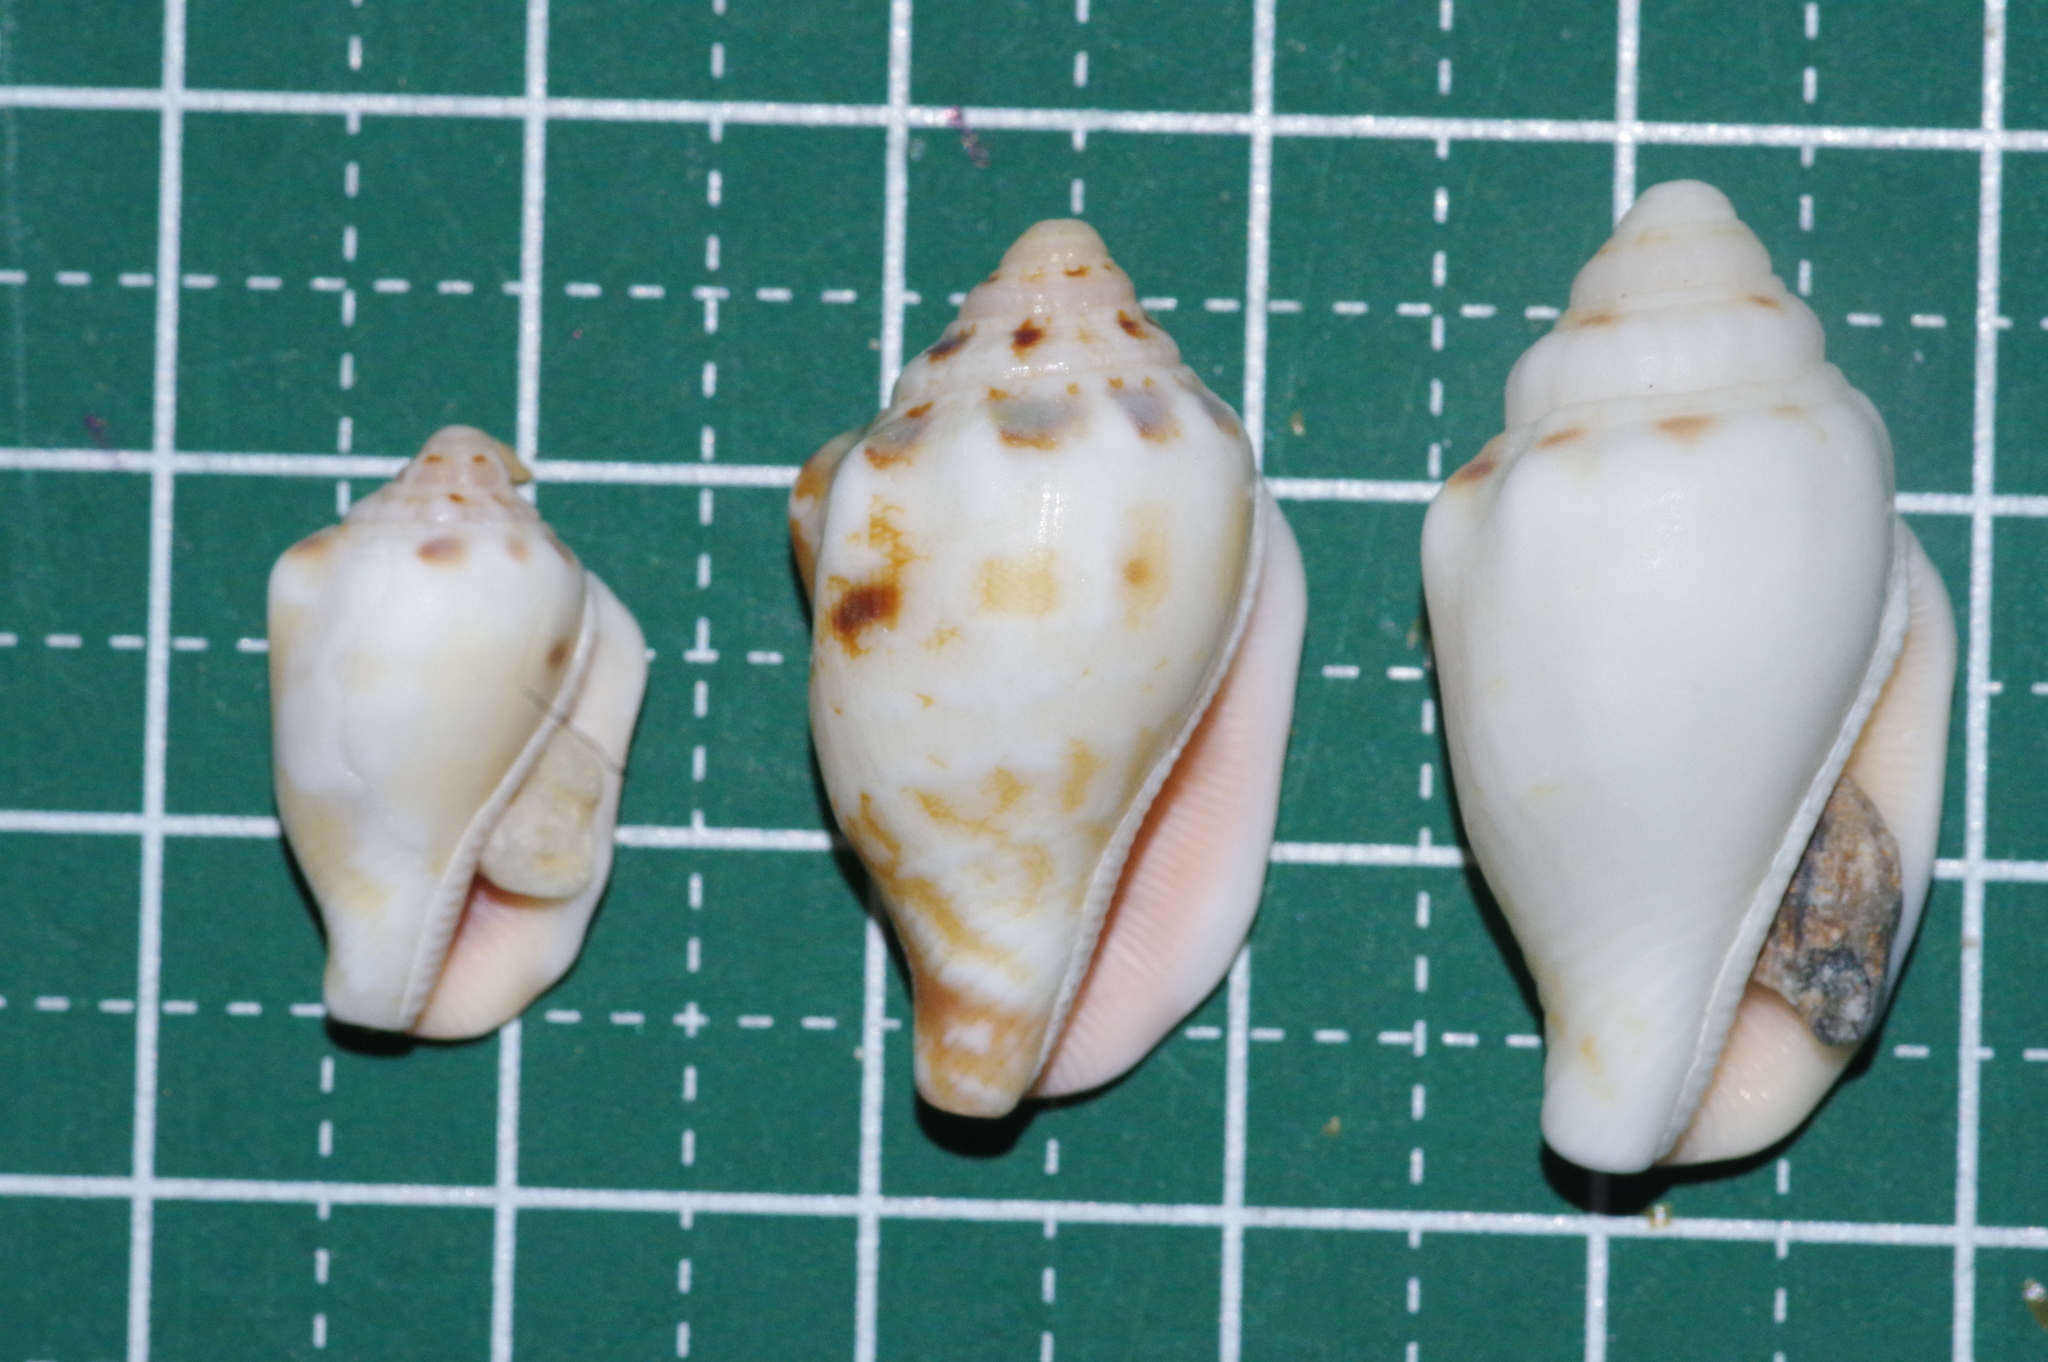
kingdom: Animalia
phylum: Mollusca
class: Gastropoda
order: Littorinimorpha
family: Strombidae
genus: Canarium
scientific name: Canarium mutabile
